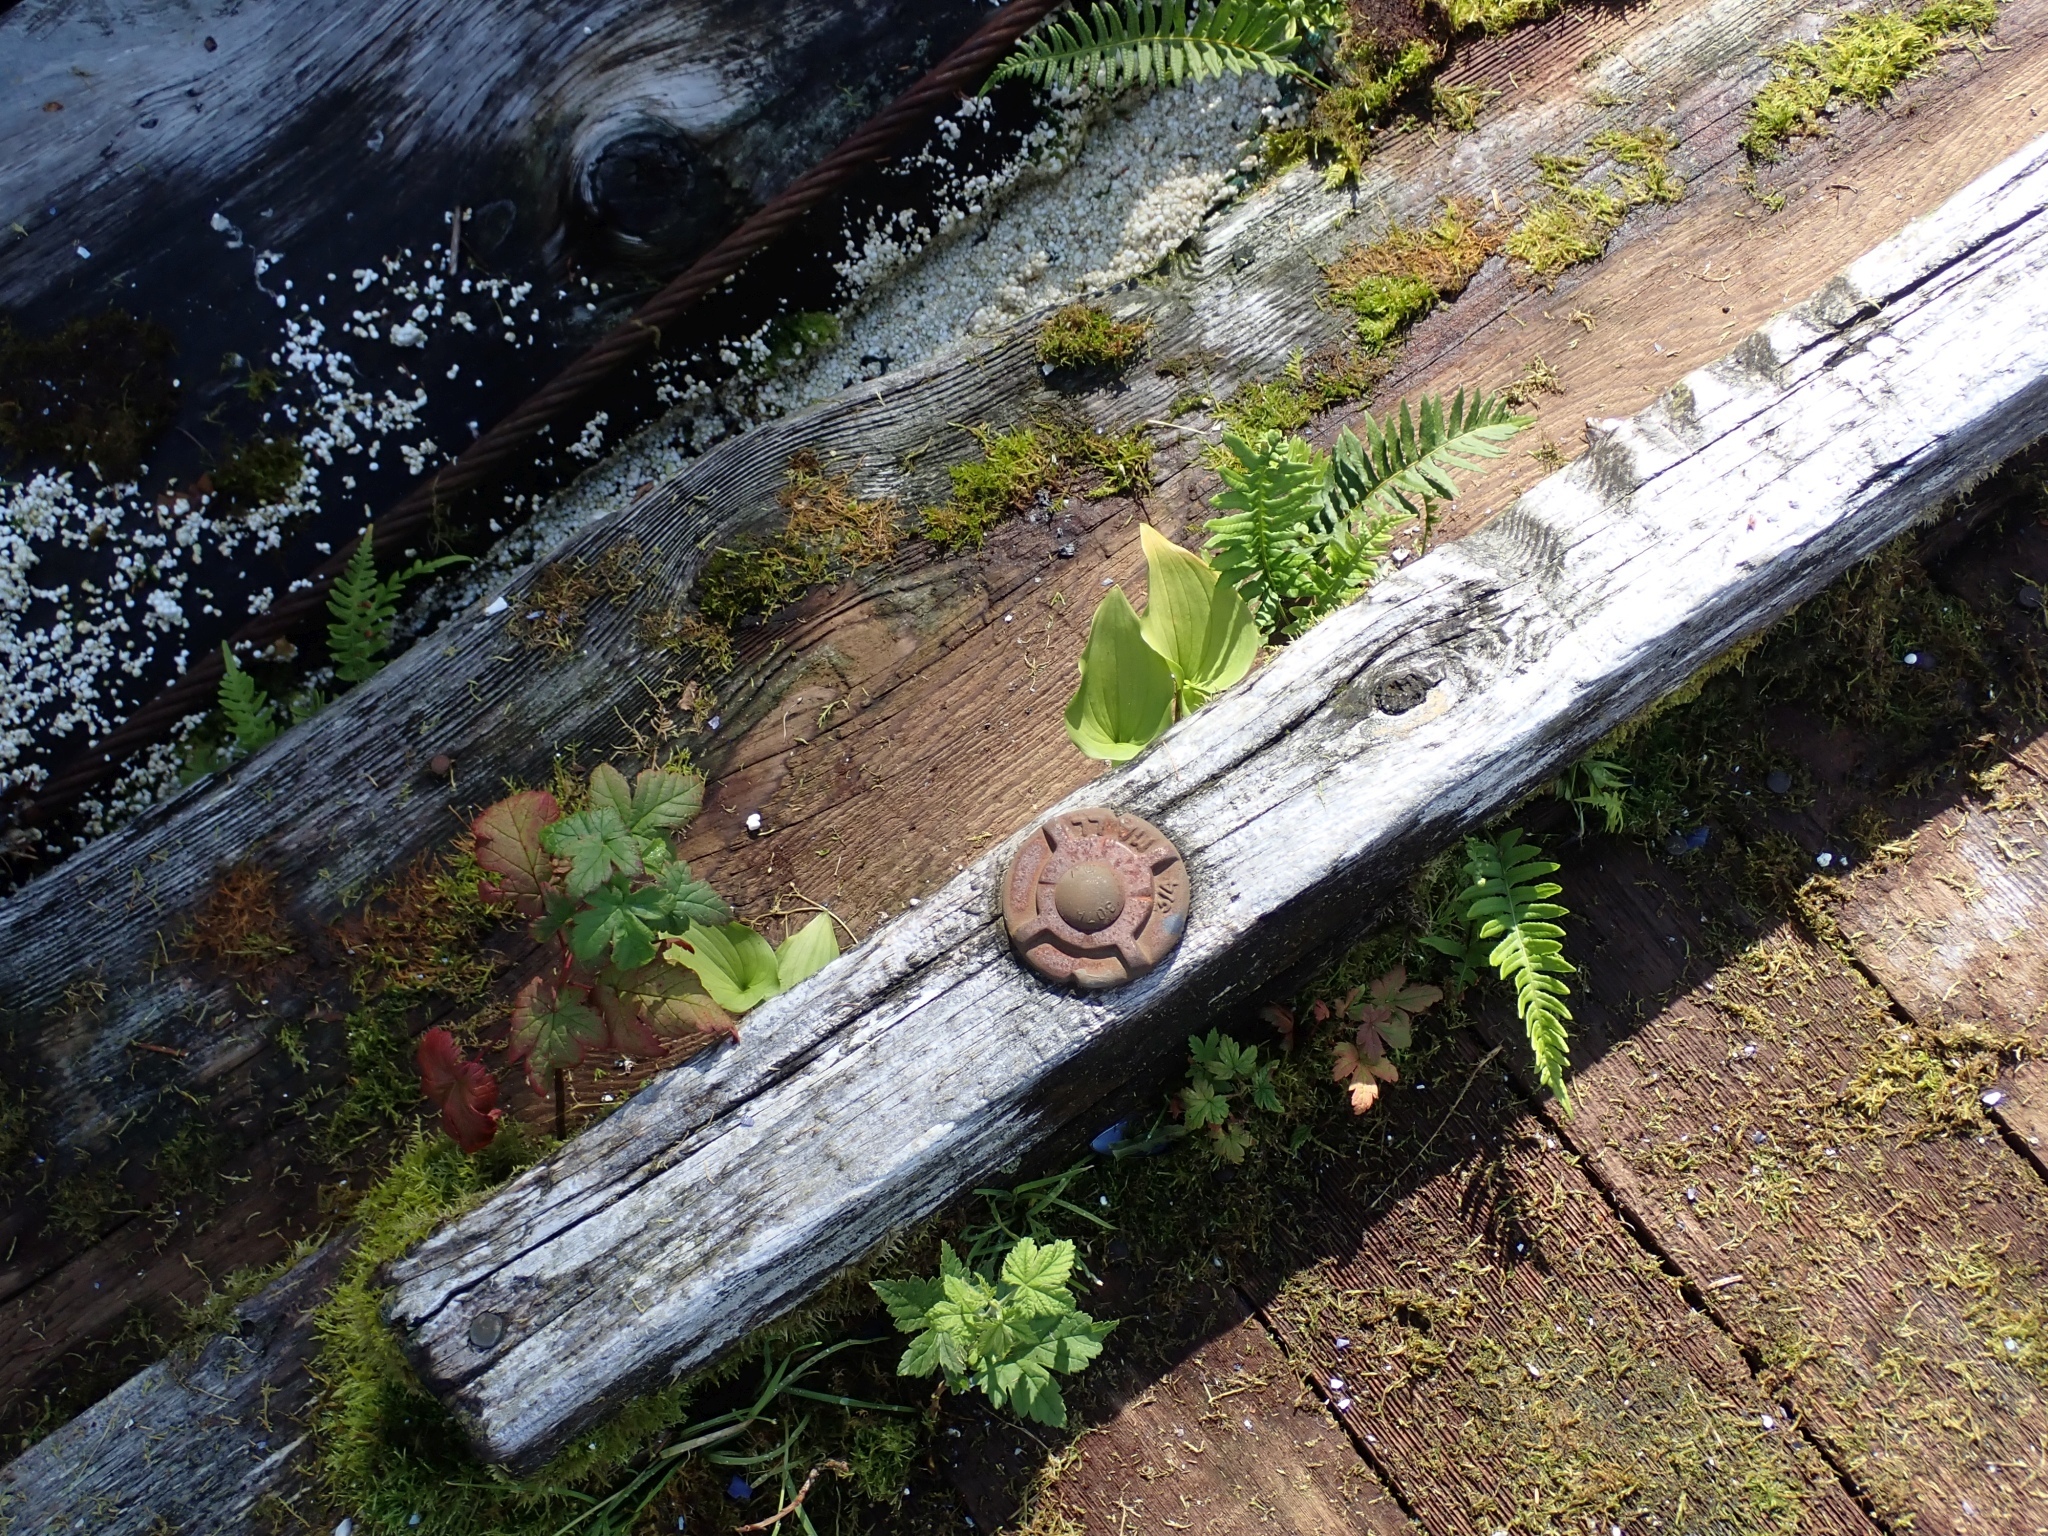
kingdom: Plantae
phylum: Tracheophyta
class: Liliopsida
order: Asparagales
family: Asparagaceae
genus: Maianthemum
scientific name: Maianthemum dilatatum
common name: False lily-of-the-valley
